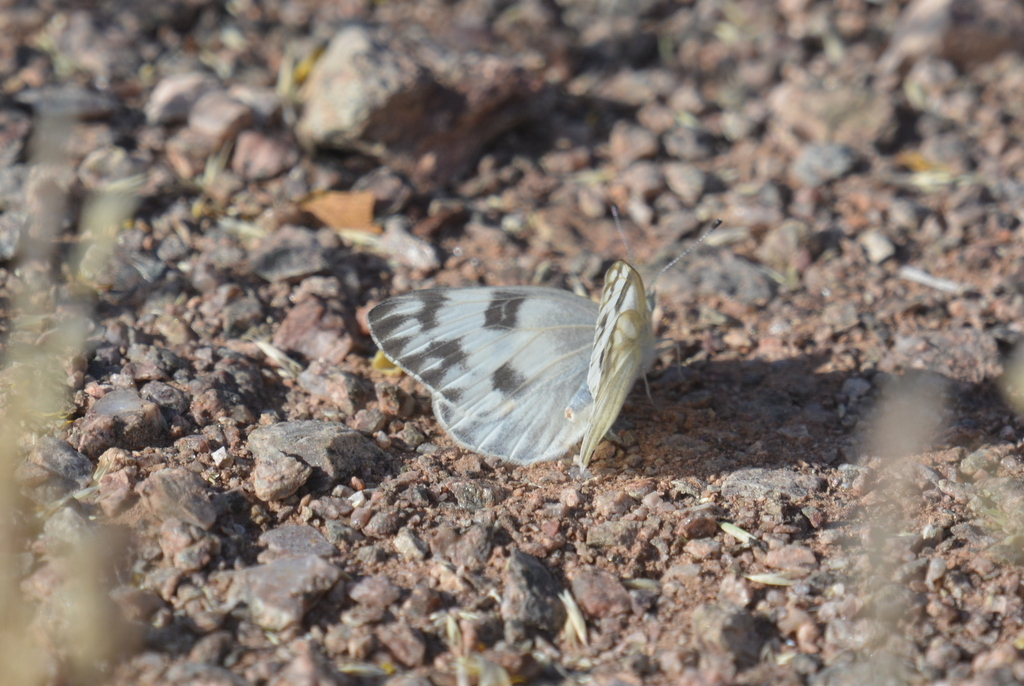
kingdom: Animalia
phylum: Arthropoda
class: Insecta
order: Lepidoptera
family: Pieridae
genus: Pontia
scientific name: Pontia protodice
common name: Checkered white
